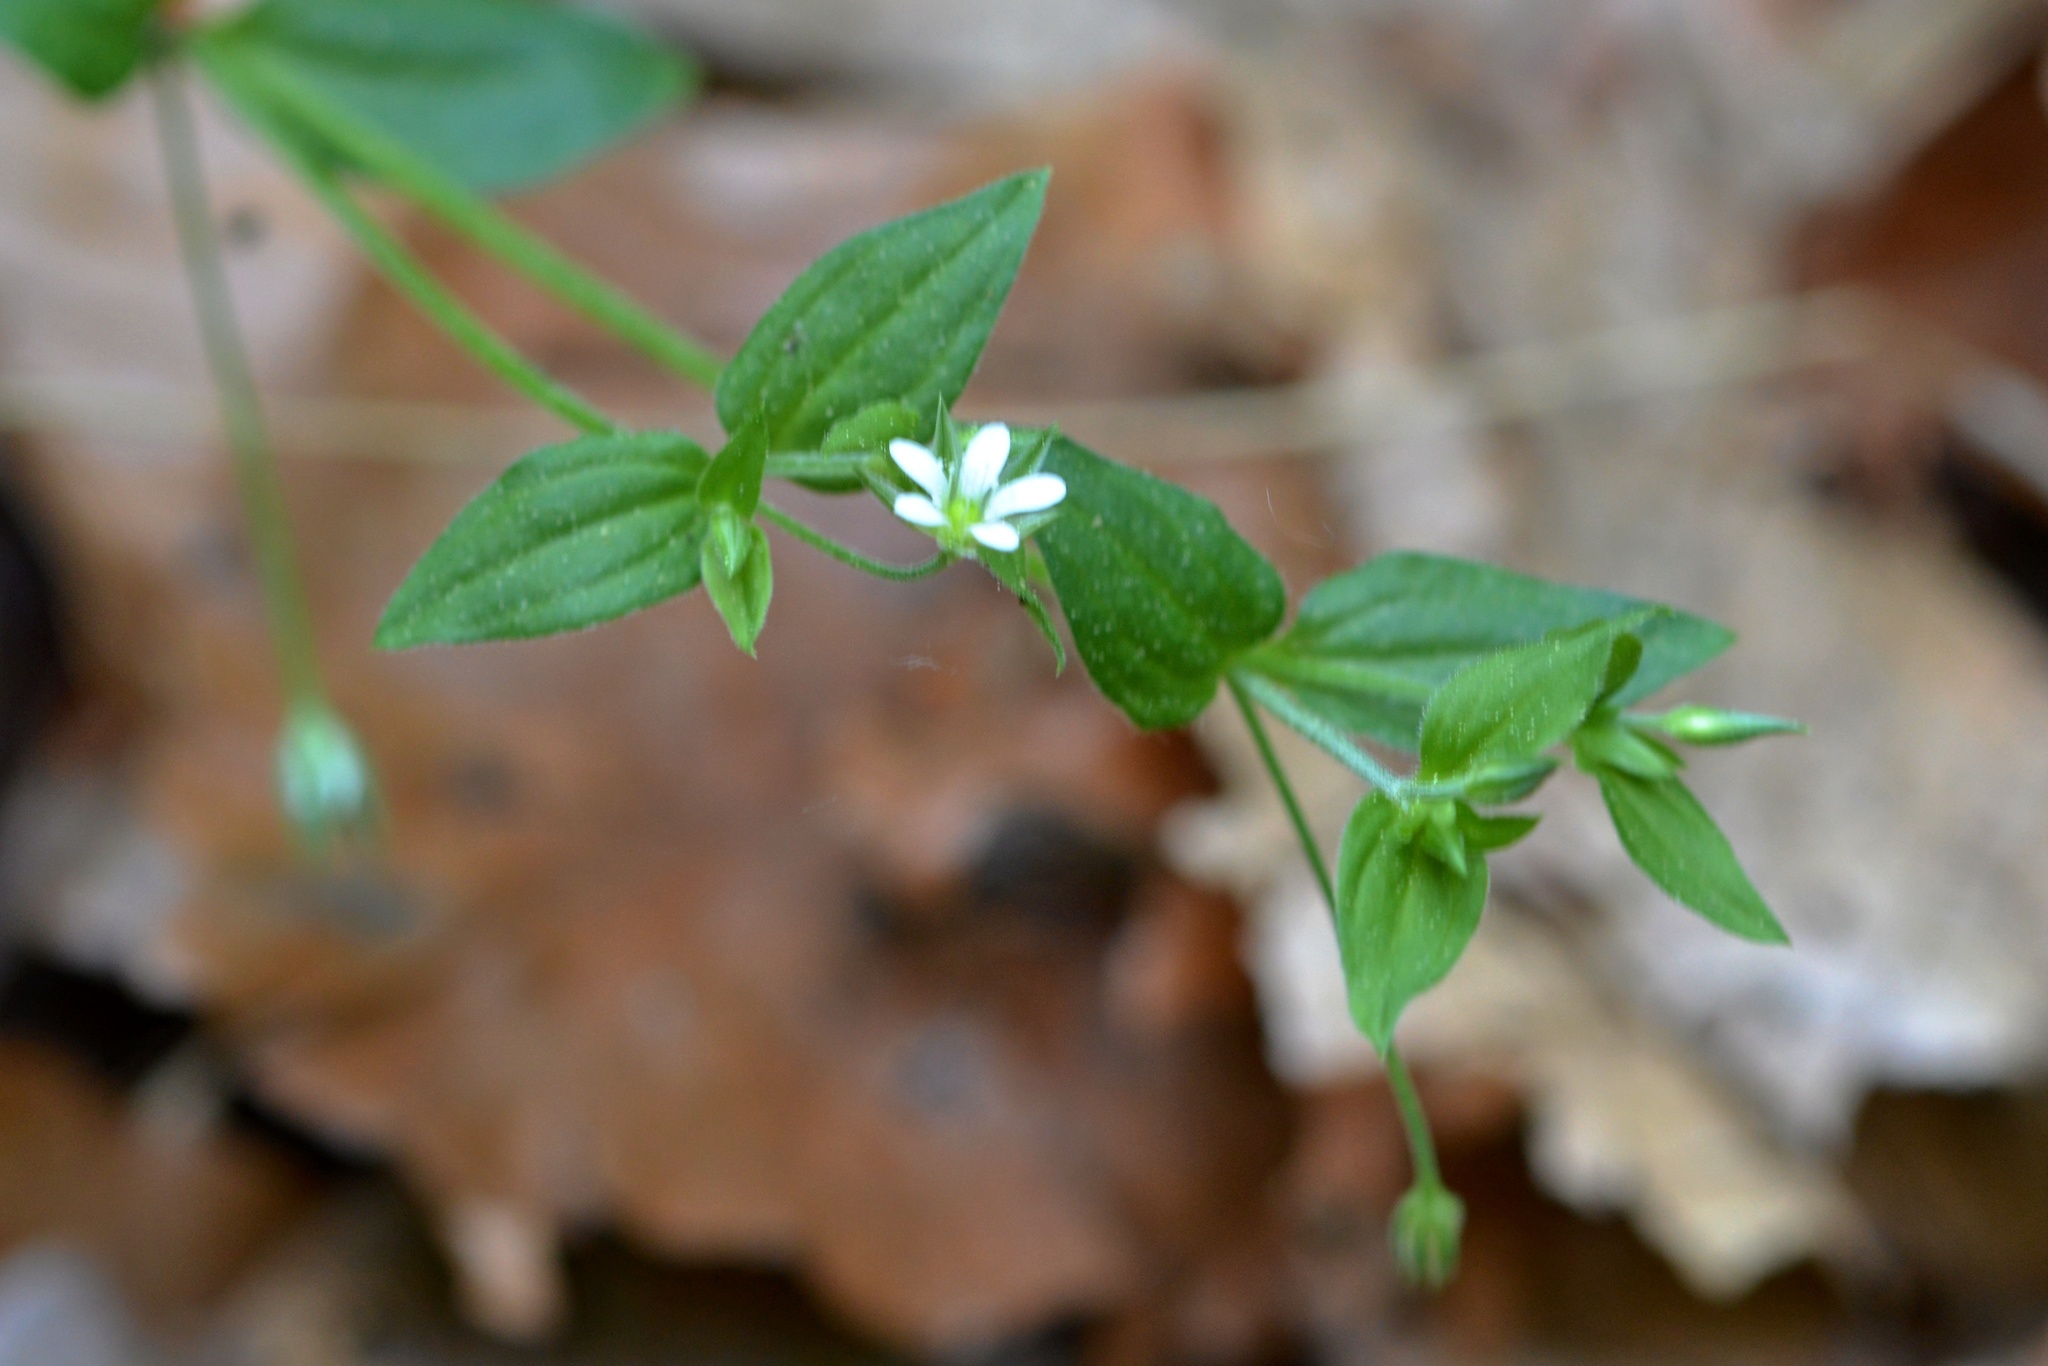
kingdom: Plantae
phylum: Tracheophyta
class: Magnoliopsida
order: Caryophyllales
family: Caryophyllaceae
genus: Moehringia
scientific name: Moehringia trinervia
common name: Three-nerved sandwort
